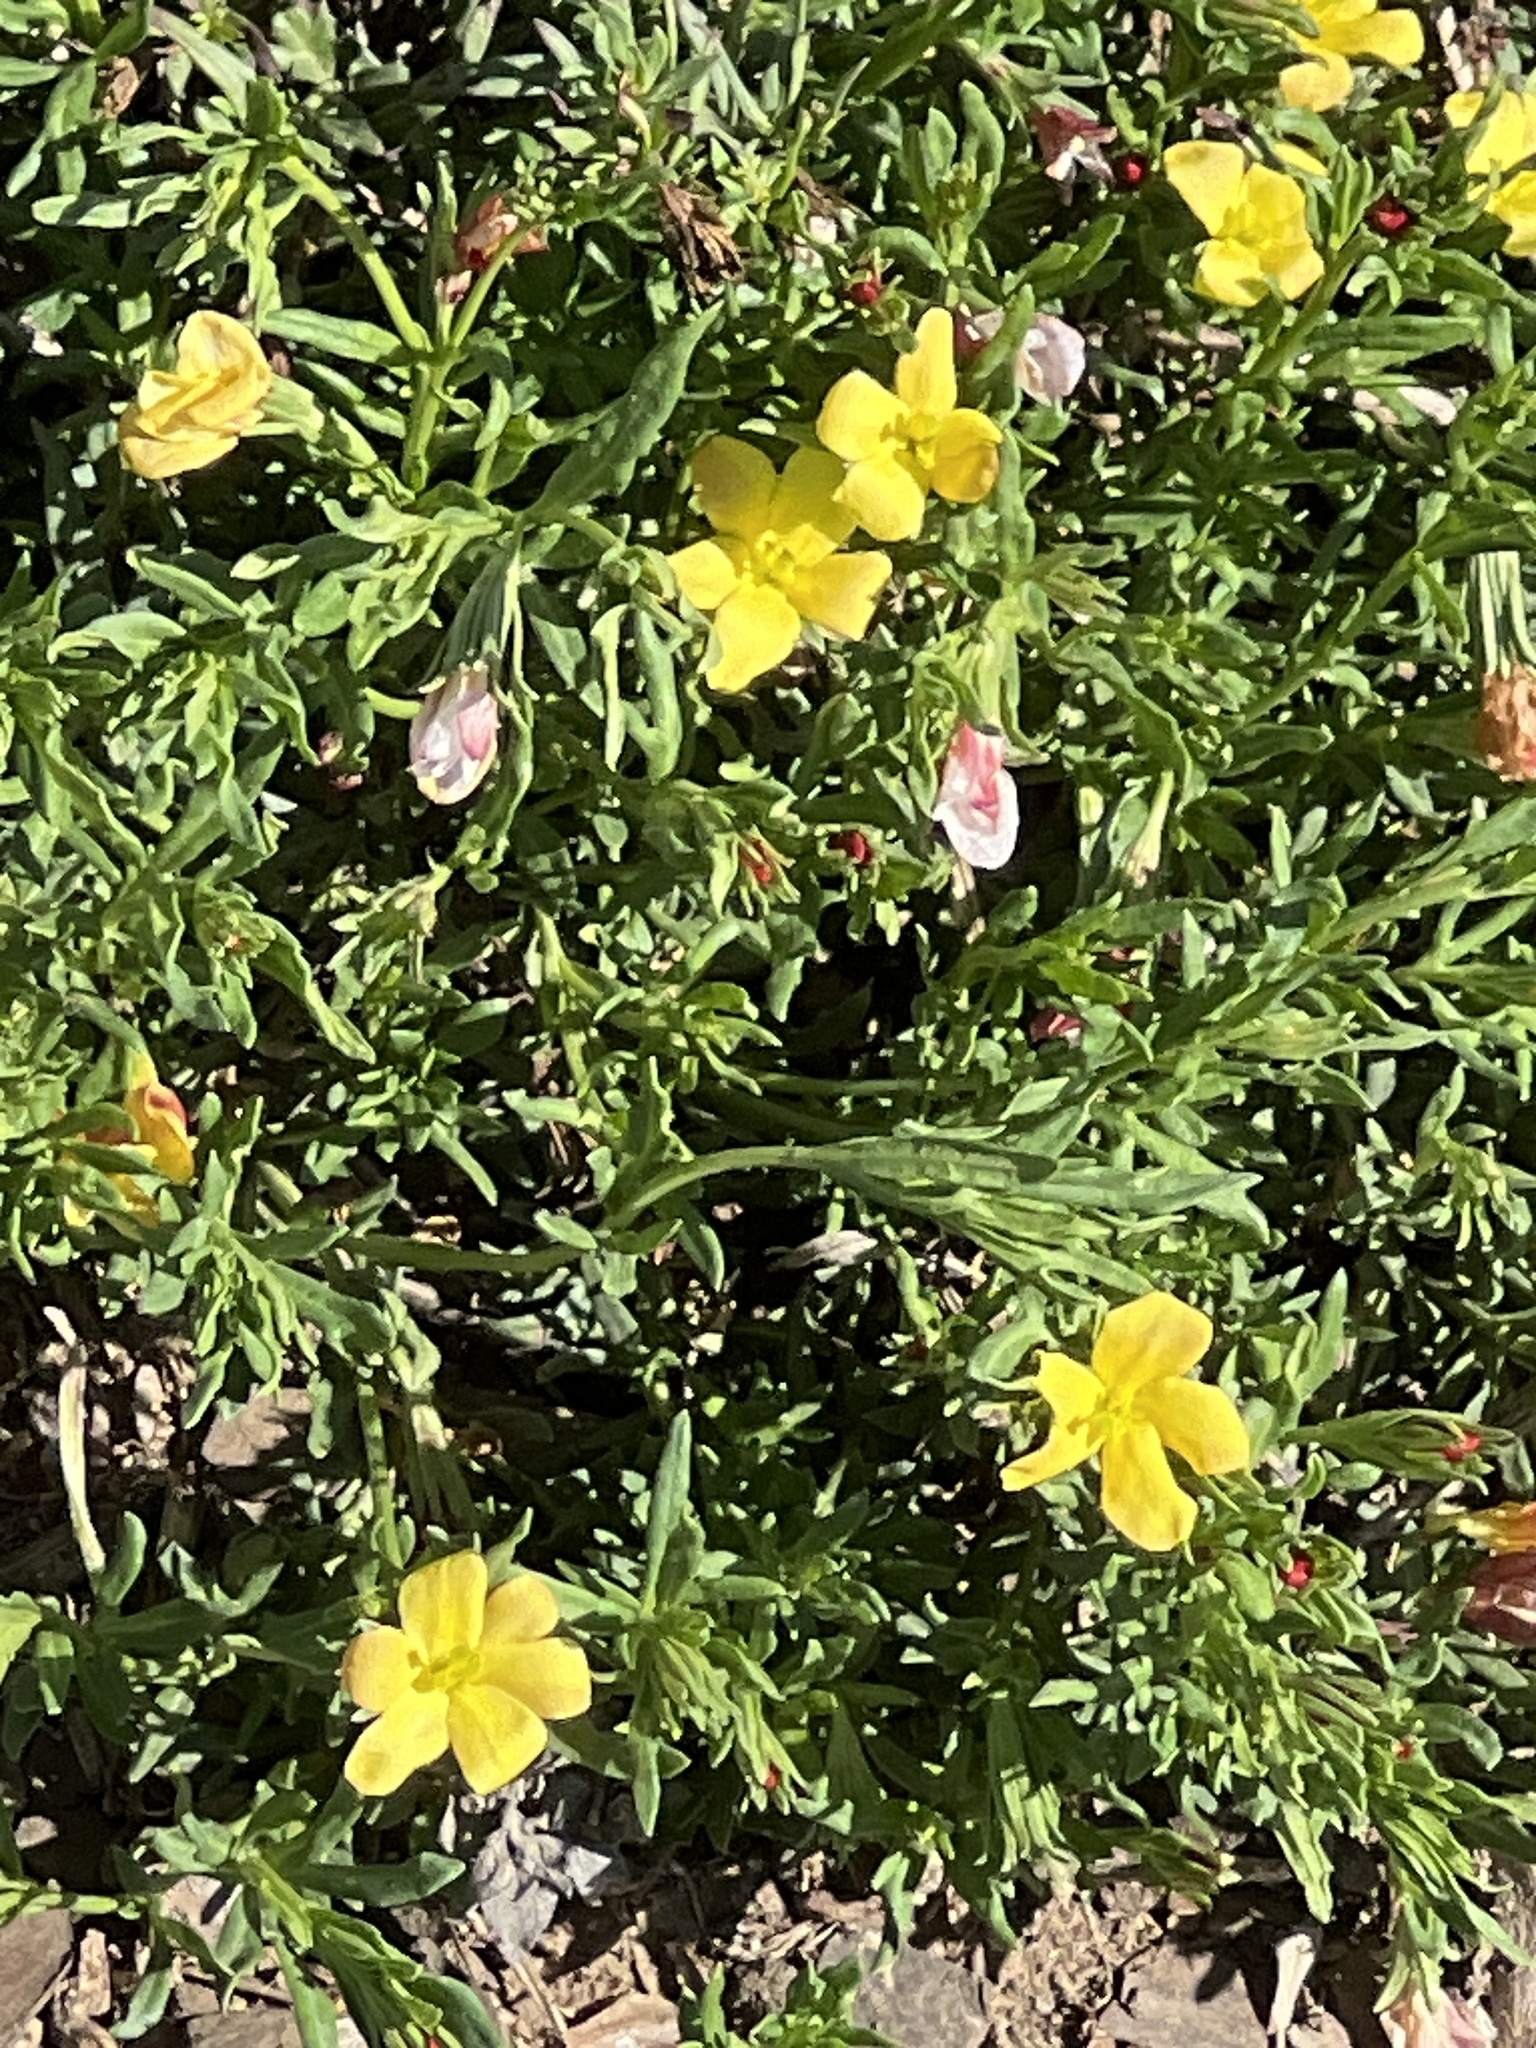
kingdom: Plantae
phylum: Tracheophyta
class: Magnoliopsida
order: Lamiales
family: Oleaceae
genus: Menodora
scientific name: Menodora heterophylla
